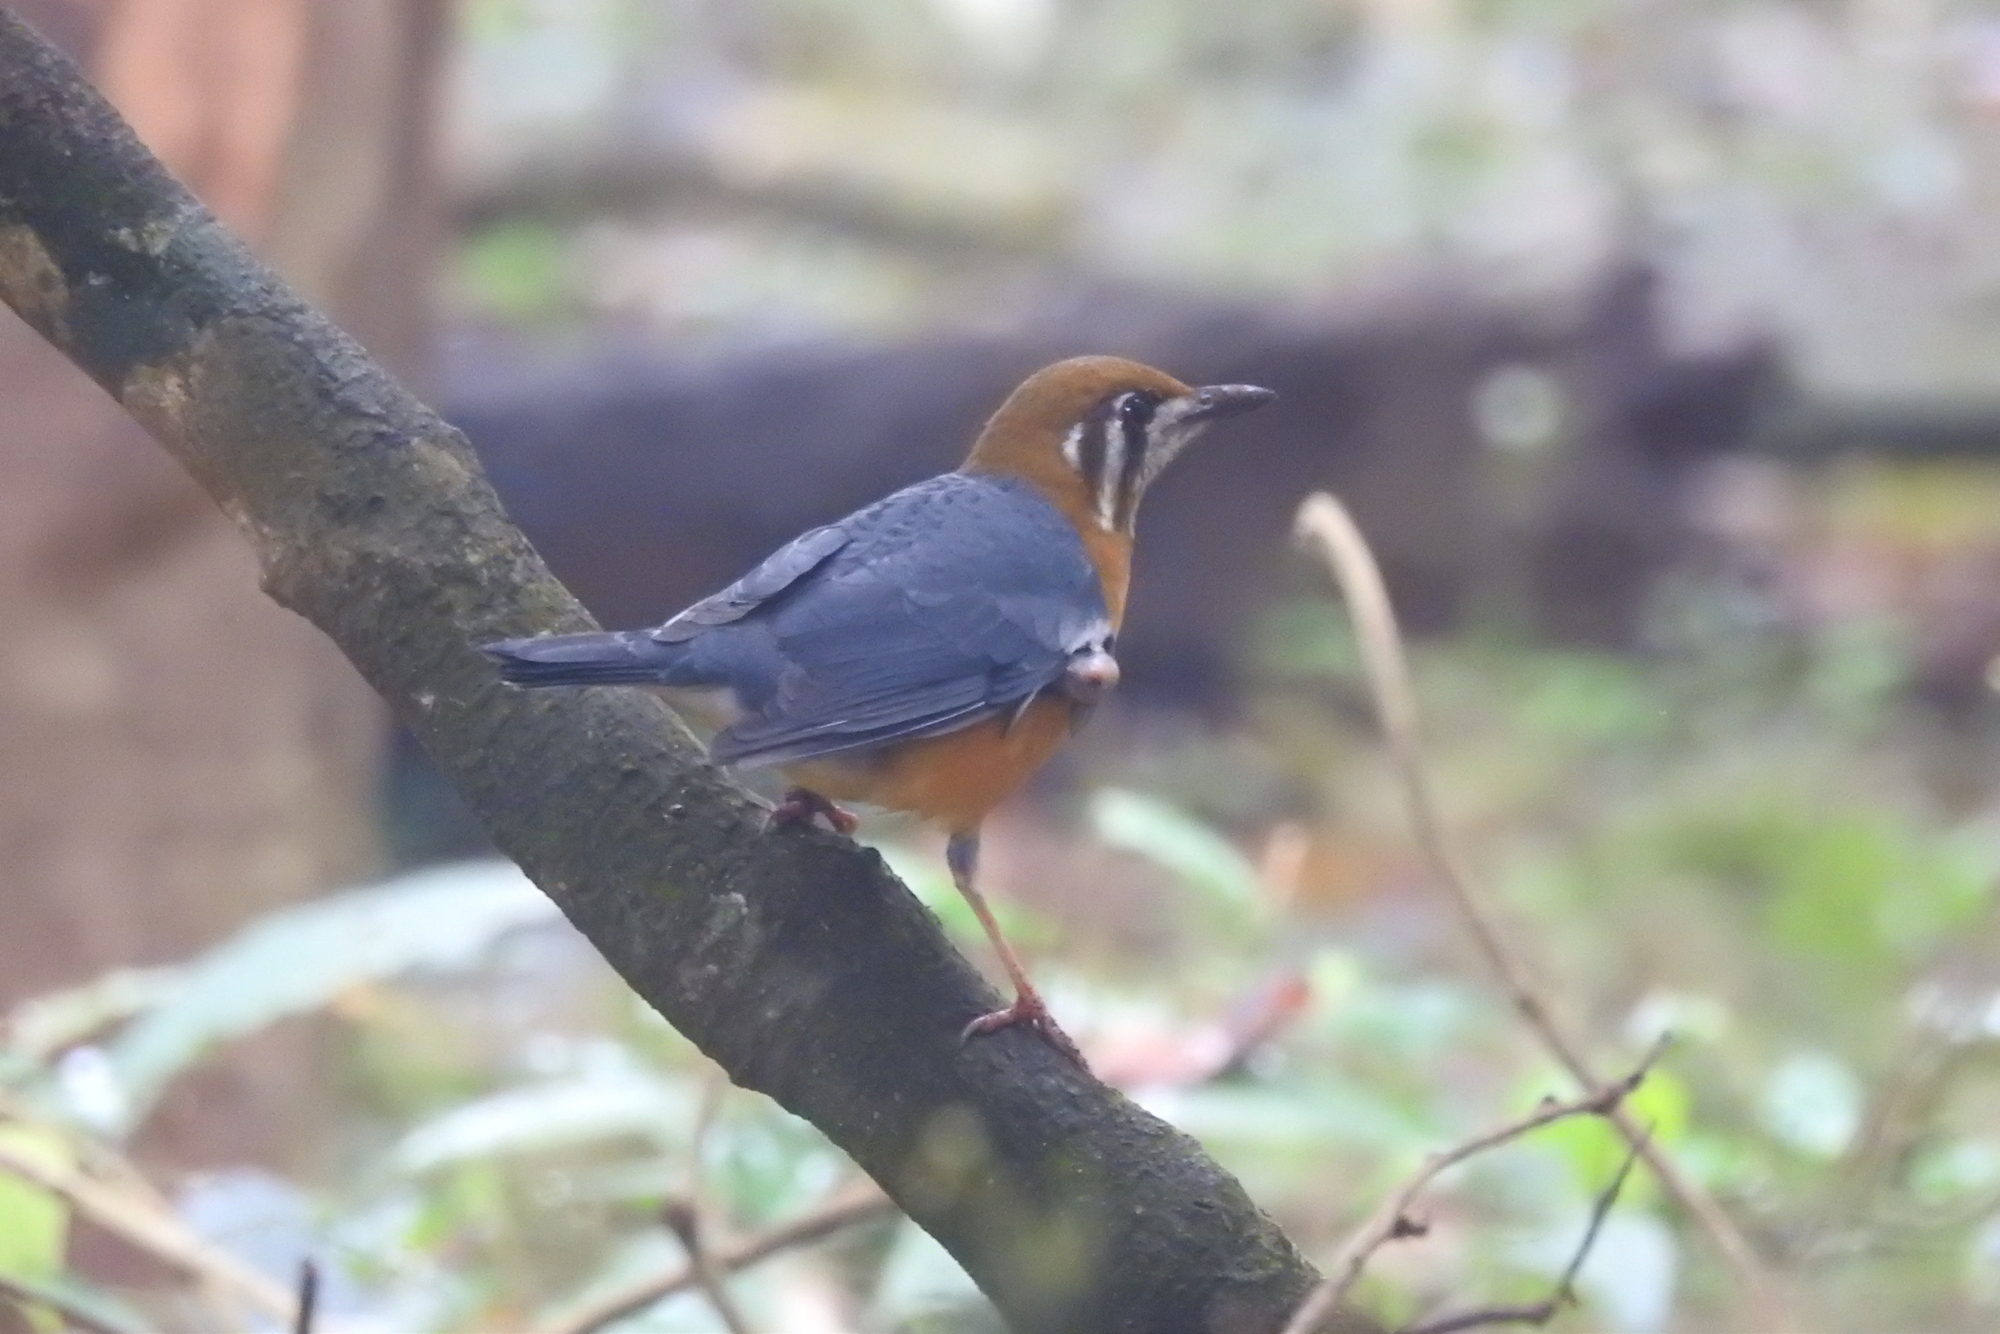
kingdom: Animalia
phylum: Chordata
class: Aves
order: Passeriformes
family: Turdidae
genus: Geokichla
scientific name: Geokichla citrina
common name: Orange-headed thrush
